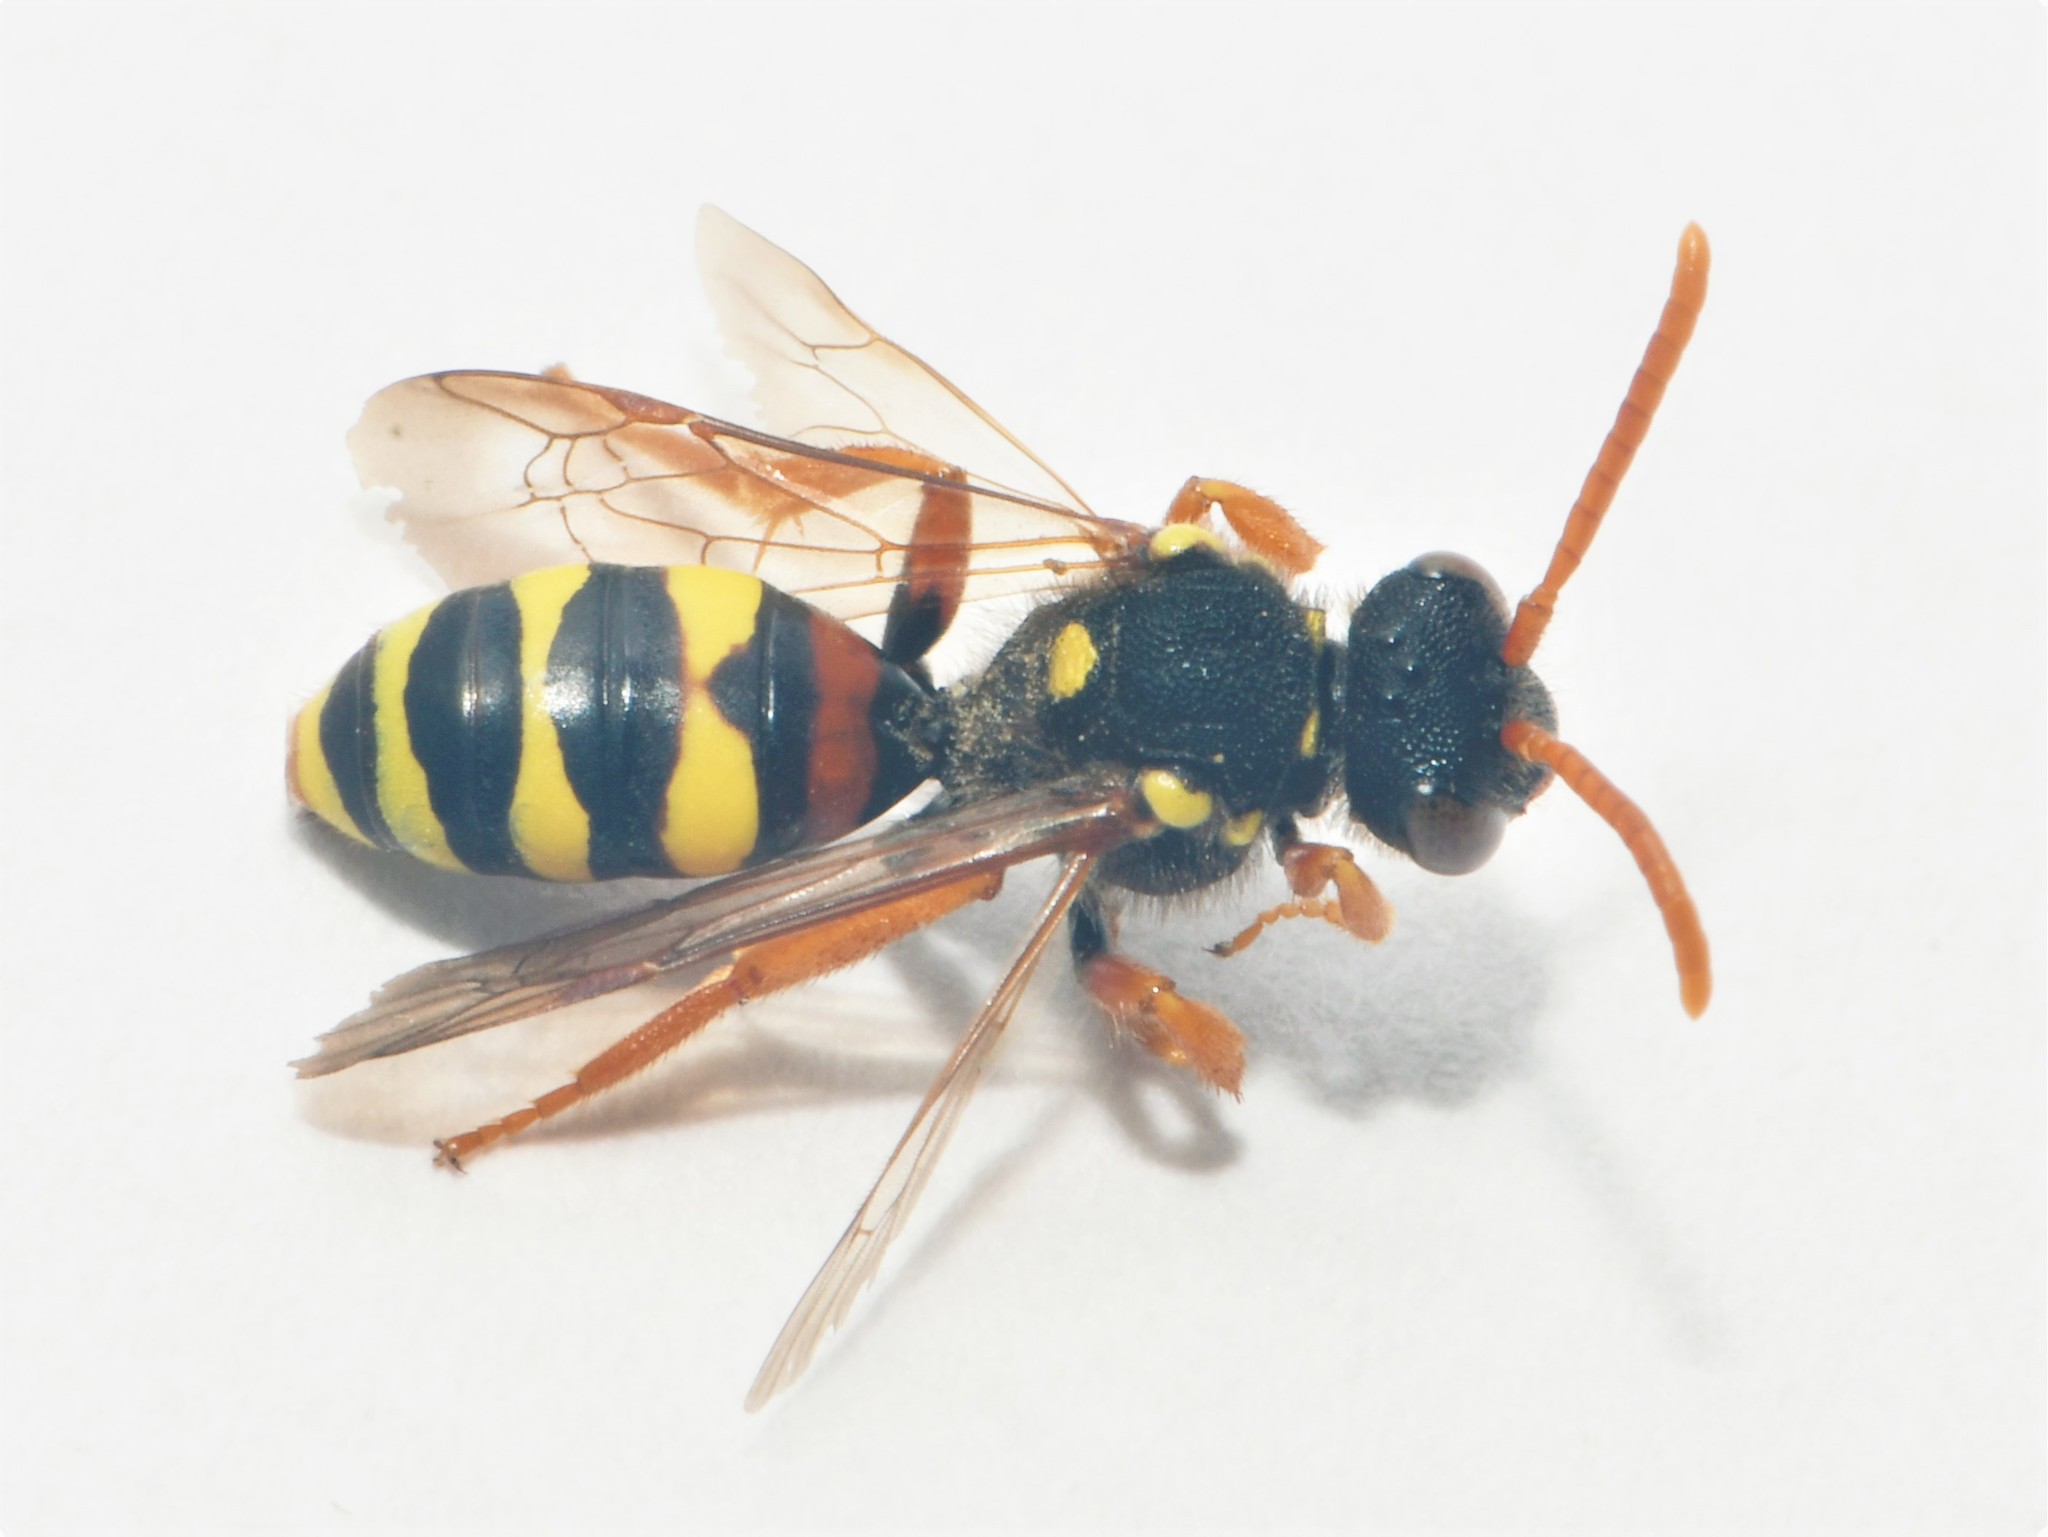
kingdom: Animalia
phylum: Arthropoda
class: Insecta
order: Hymenoptera
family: Apidae
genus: Nomada
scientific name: Nomada fucata
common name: Painted nomad bee
